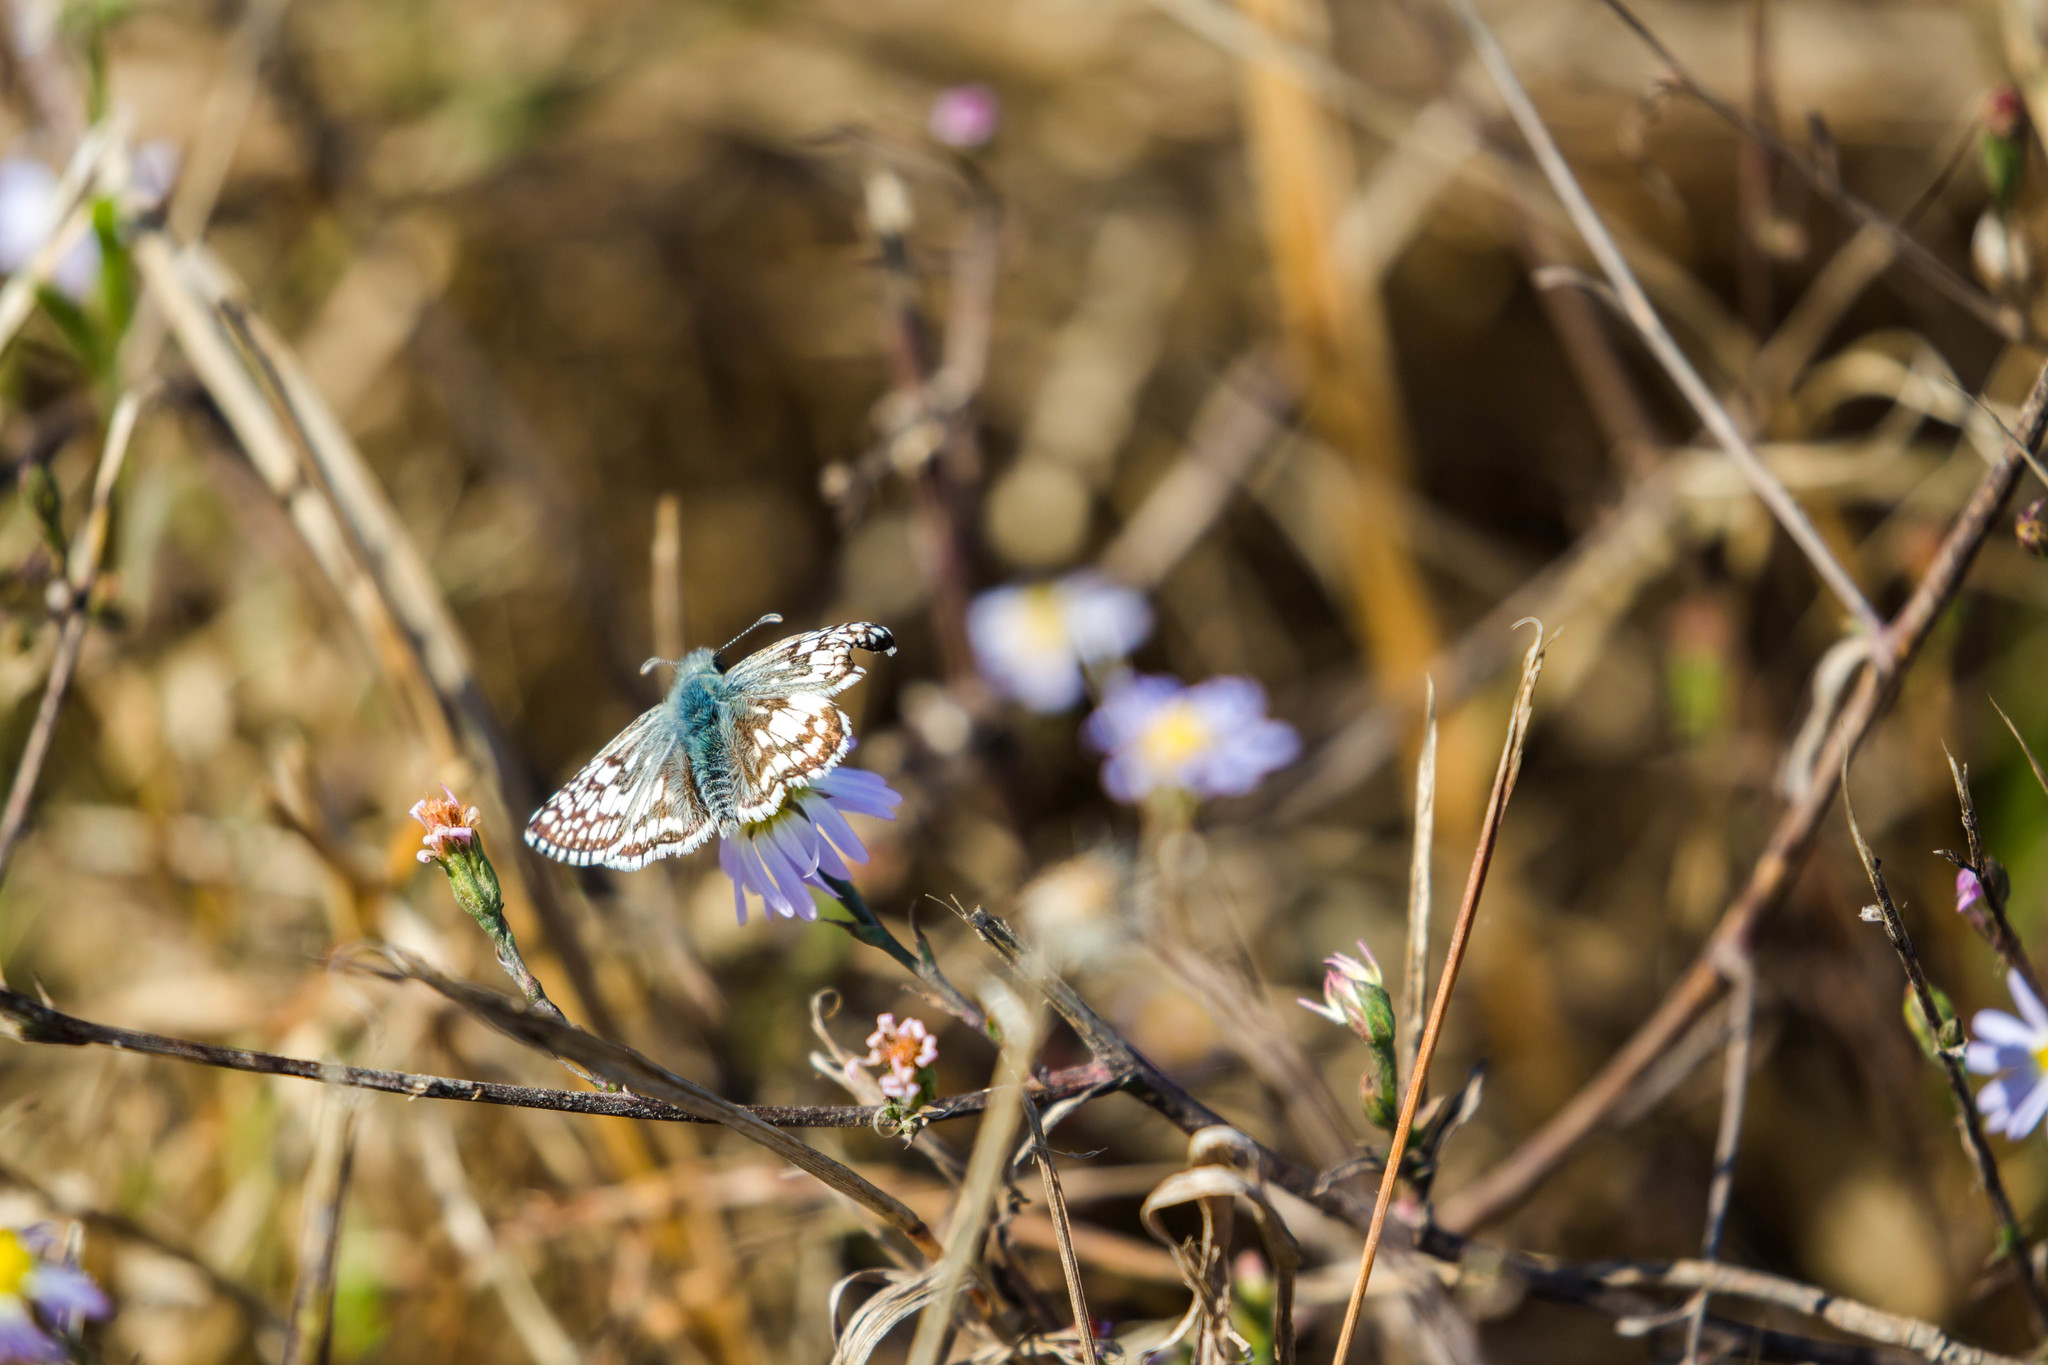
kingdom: Animalia
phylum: Arthropoda
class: Insecta
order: Lepidoptera
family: Hesperiidae
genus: Burnsius
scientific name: Burnsius communis
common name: Common checkered-skipper
